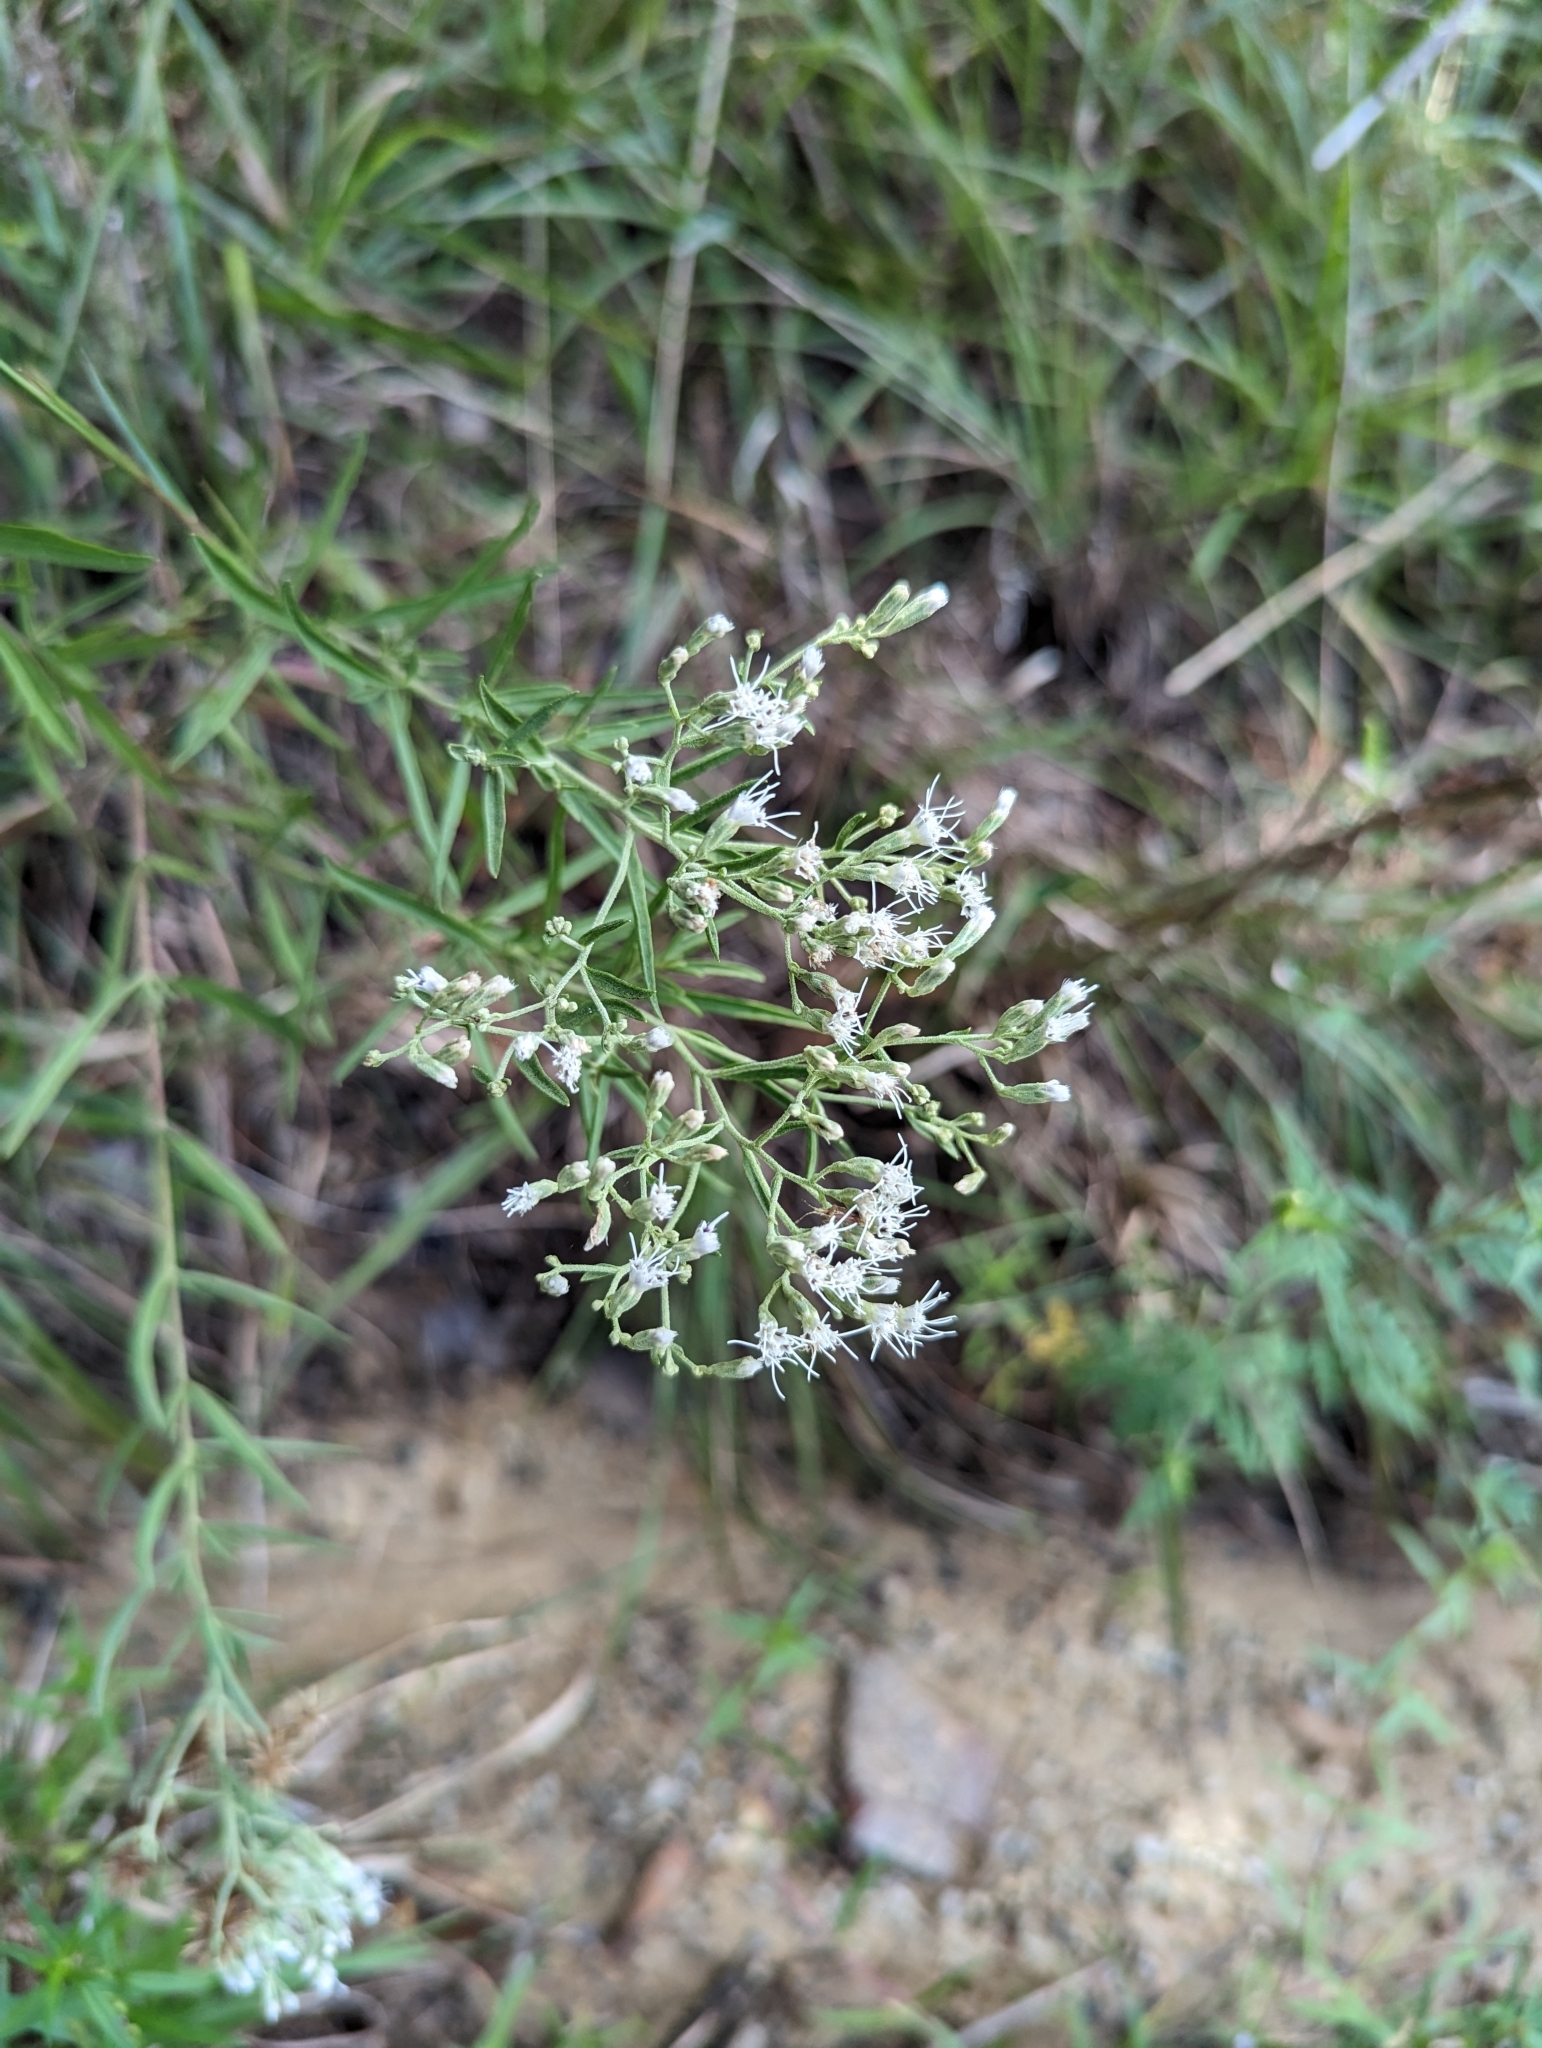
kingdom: Plantae
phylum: Tracheophyta
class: Magnoliopsida
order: Asterales
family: Asteraceae
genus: Eupatorium
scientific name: Eupatorium hyssopifolium
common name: Hyssop-leaf thoroughwort
